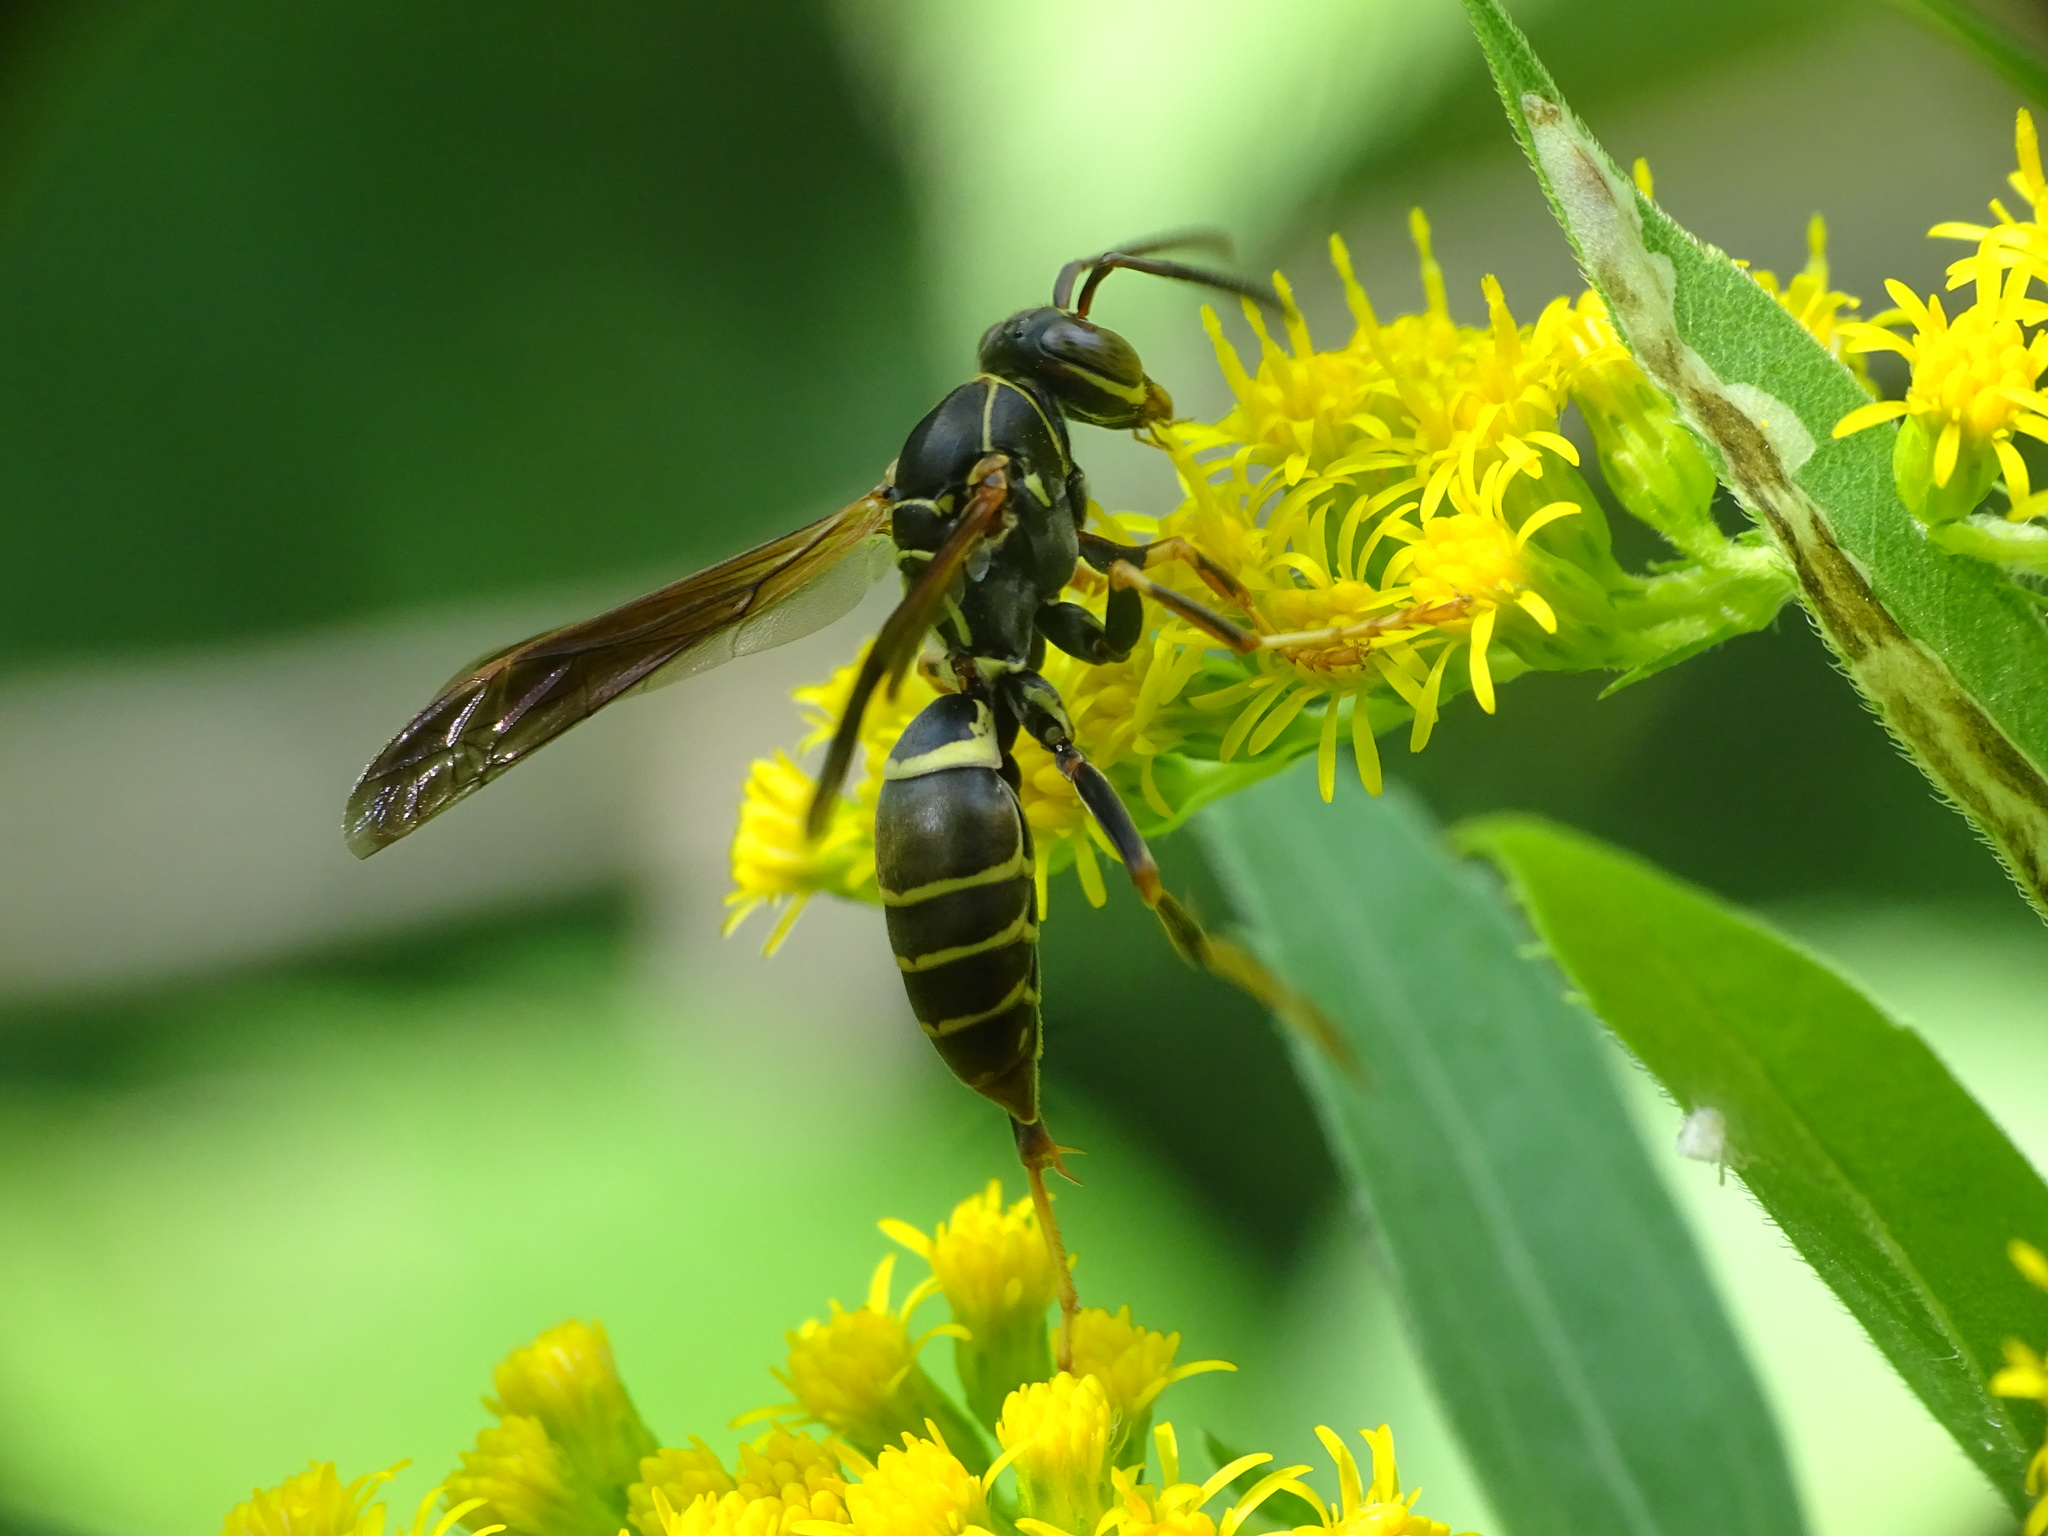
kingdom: Animalia
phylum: Arthropoda
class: Insecta
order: Hymenoptera
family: Eumenidae
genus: Polistes
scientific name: Polistes fuscatus
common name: Dark paper wasp
